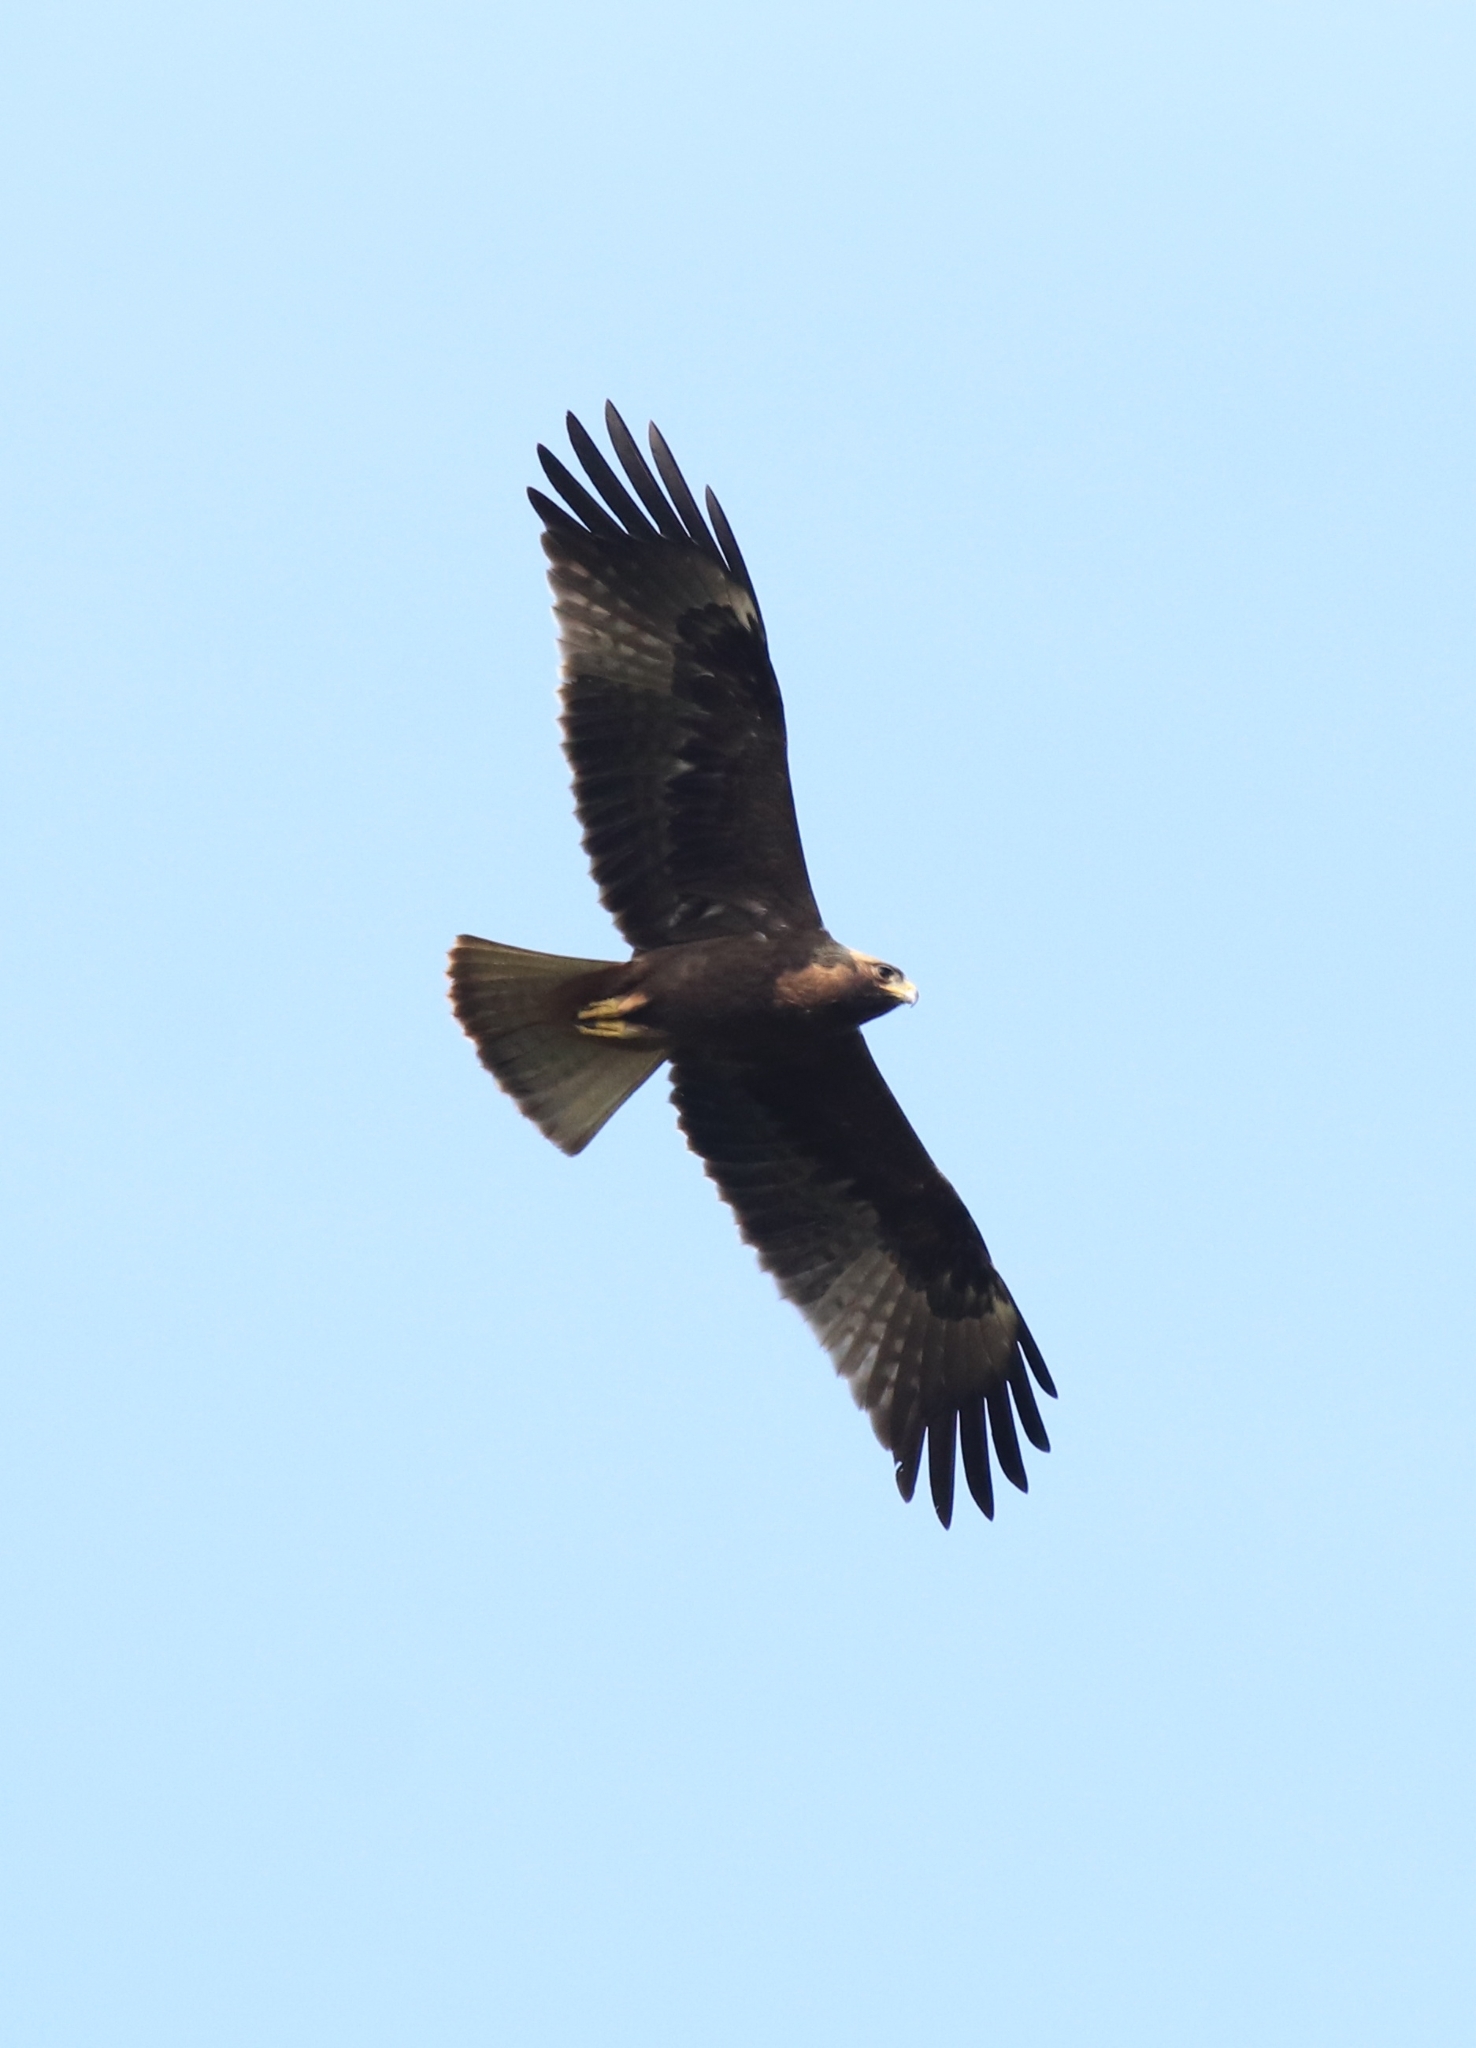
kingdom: Animalia
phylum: Chordata
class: Aves
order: Accipitriformes
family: Accipitridae
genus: Hieraaetus
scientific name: Hieraaetus pennatus
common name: Booted eagle
